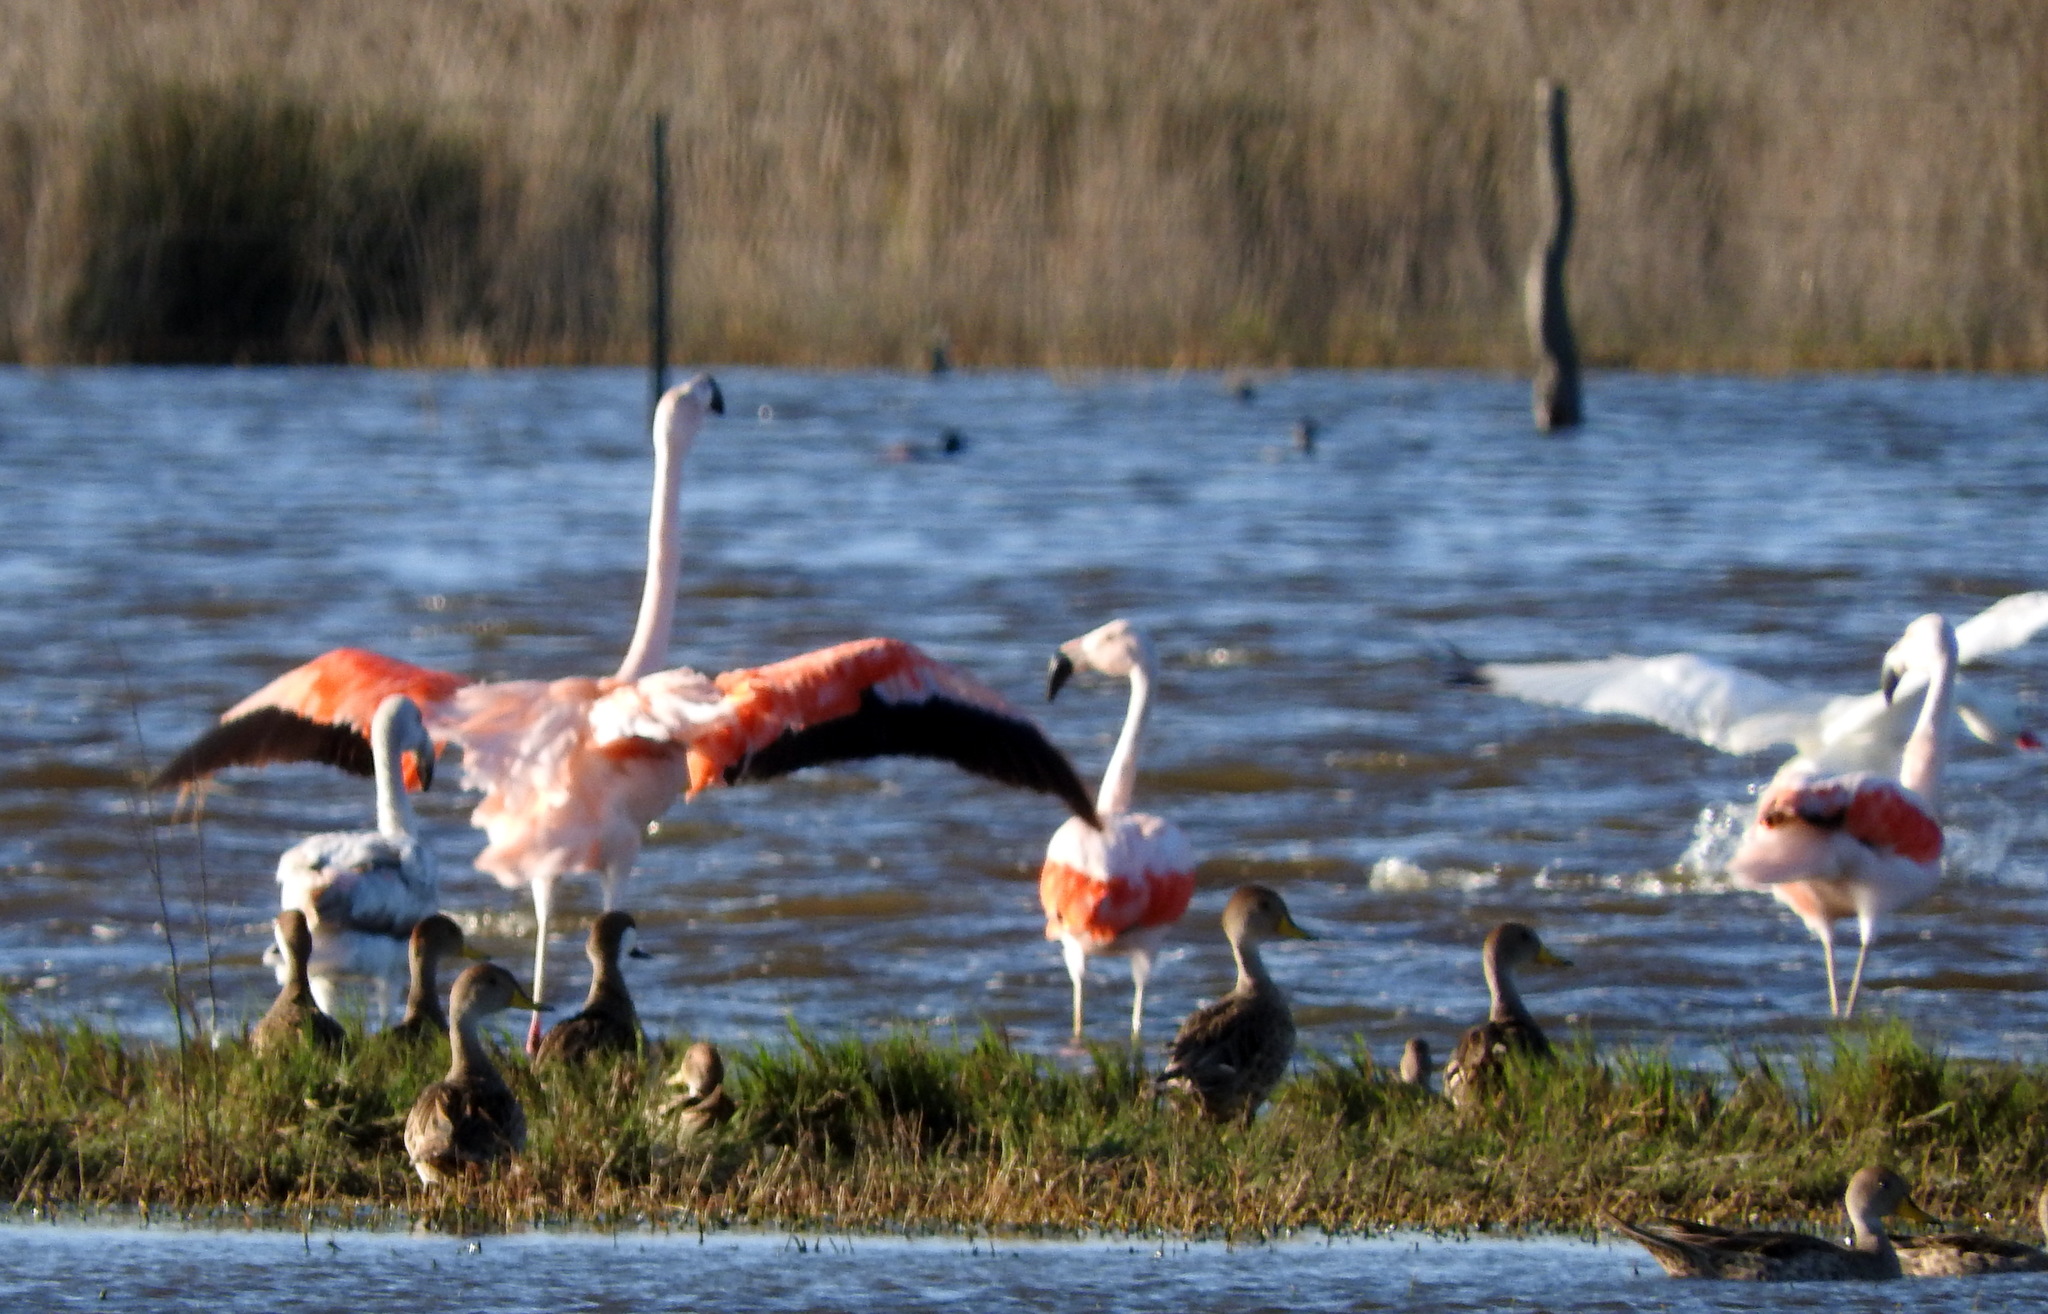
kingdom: Animalia
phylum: Chordata
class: Aves
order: Phoenicopteriformes
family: Phoenicopteridae
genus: Phoenicopterus
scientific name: Phoenicopterus chilensis
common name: Chilean flamingo
